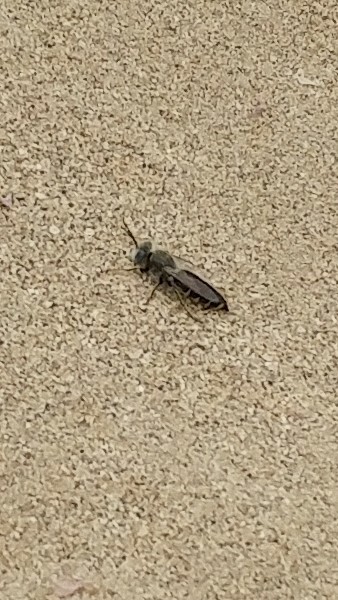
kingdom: Animalia
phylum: Arthropoda
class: Insecta
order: Hymenoptera
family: Crabronidae
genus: Bembix
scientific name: Bembix americana
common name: American sand wasp
